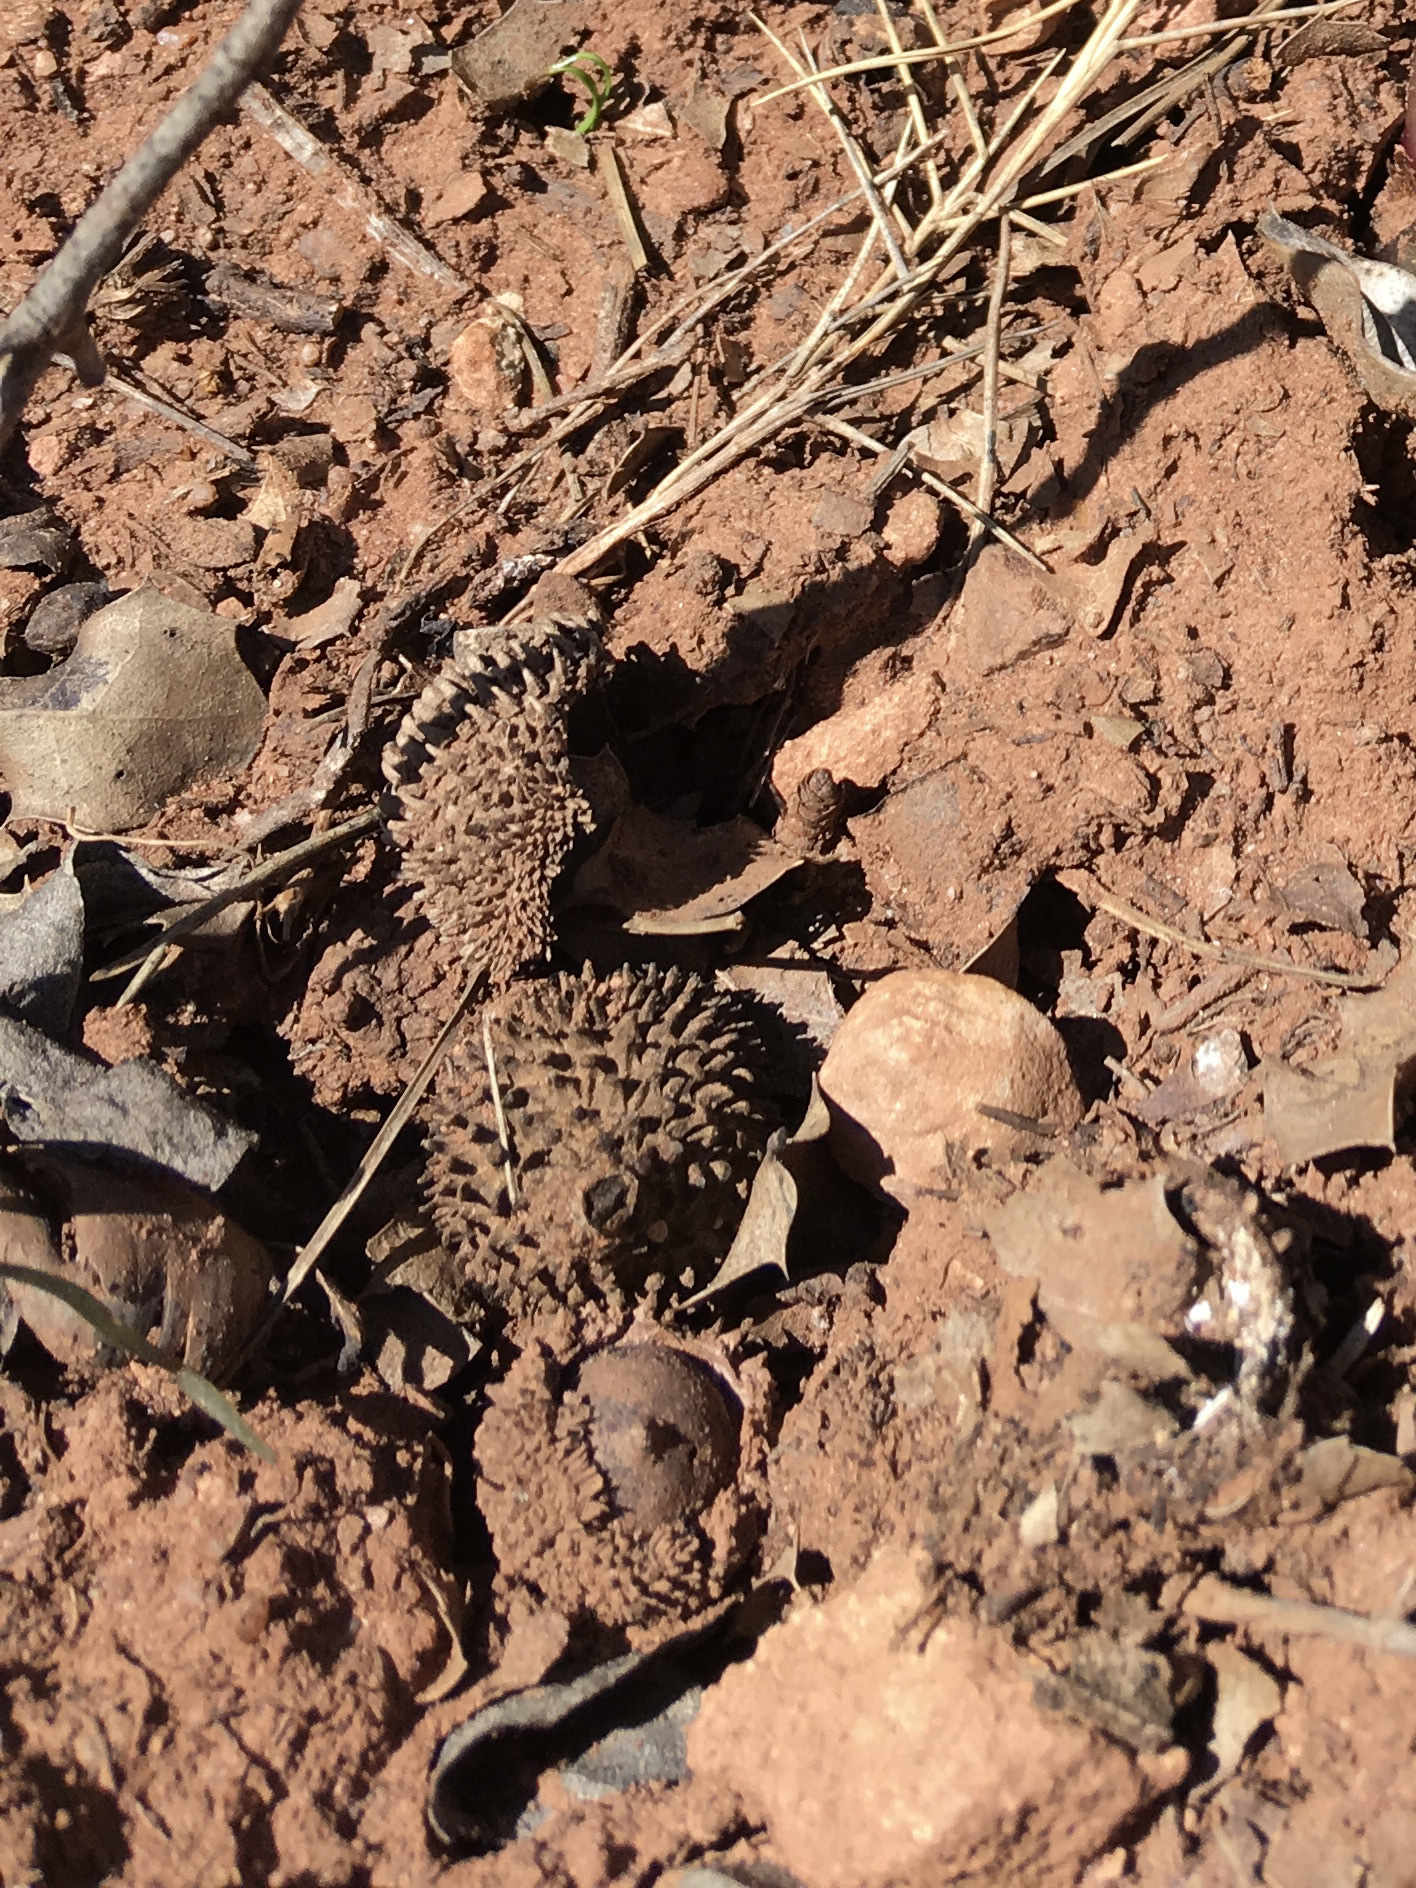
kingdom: Plantae
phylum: Tracheophyta
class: Magnoliopsida
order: Fagales
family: Fagaceae
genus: Quercus
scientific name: Quercus coccifera
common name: Kermes oak
